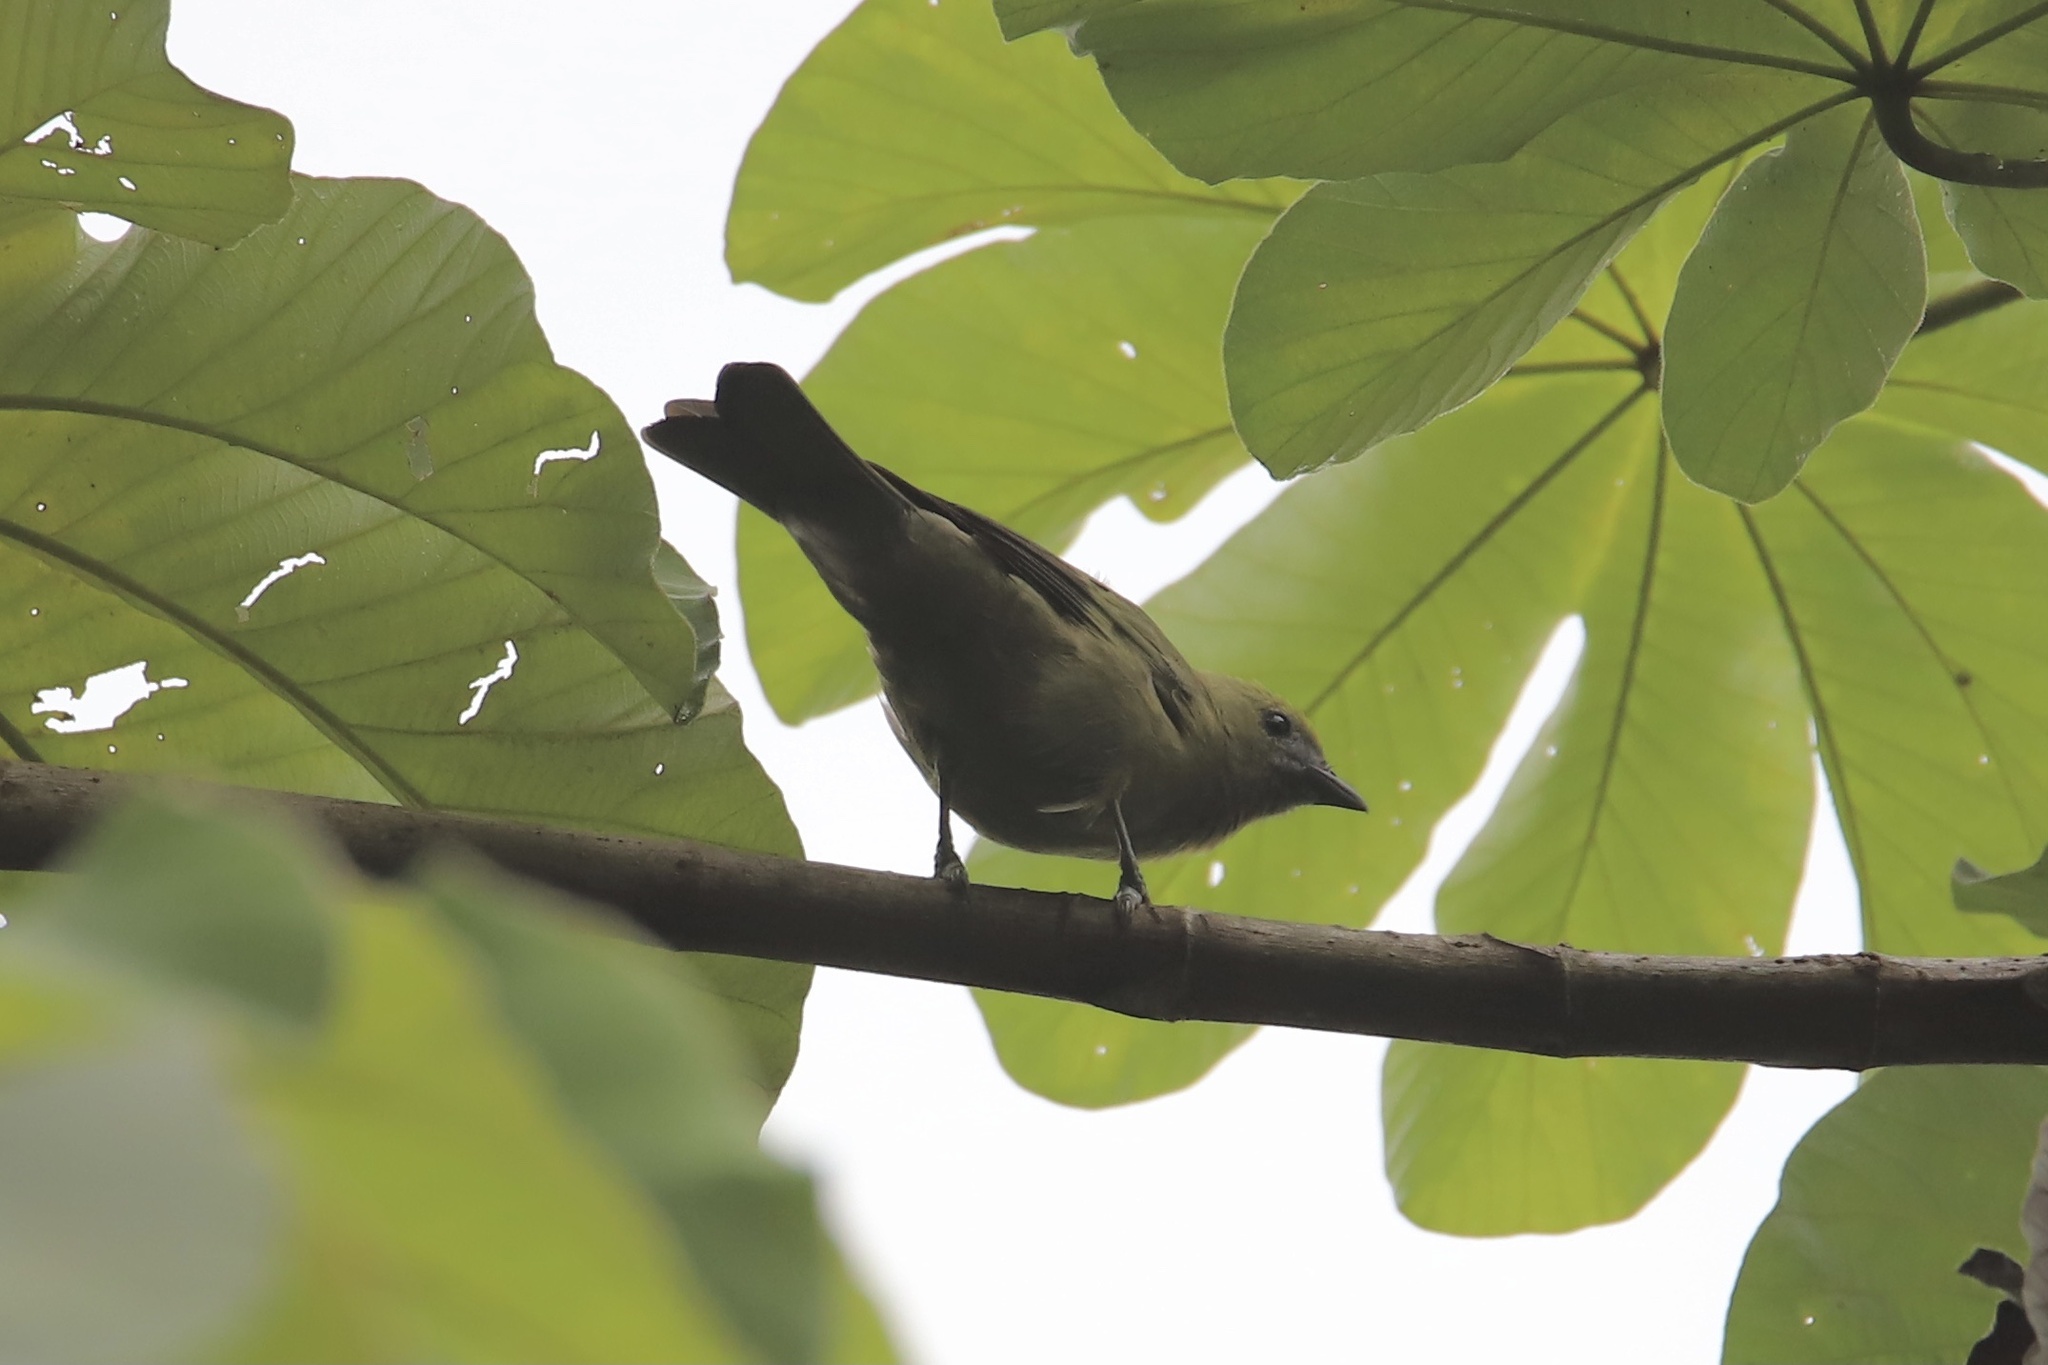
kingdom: Animalia
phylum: Chordata
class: Aves
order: Passeriformes
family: Thraupidae
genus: Thraupis
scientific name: Thraupis palmarum
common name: Palm tanager
